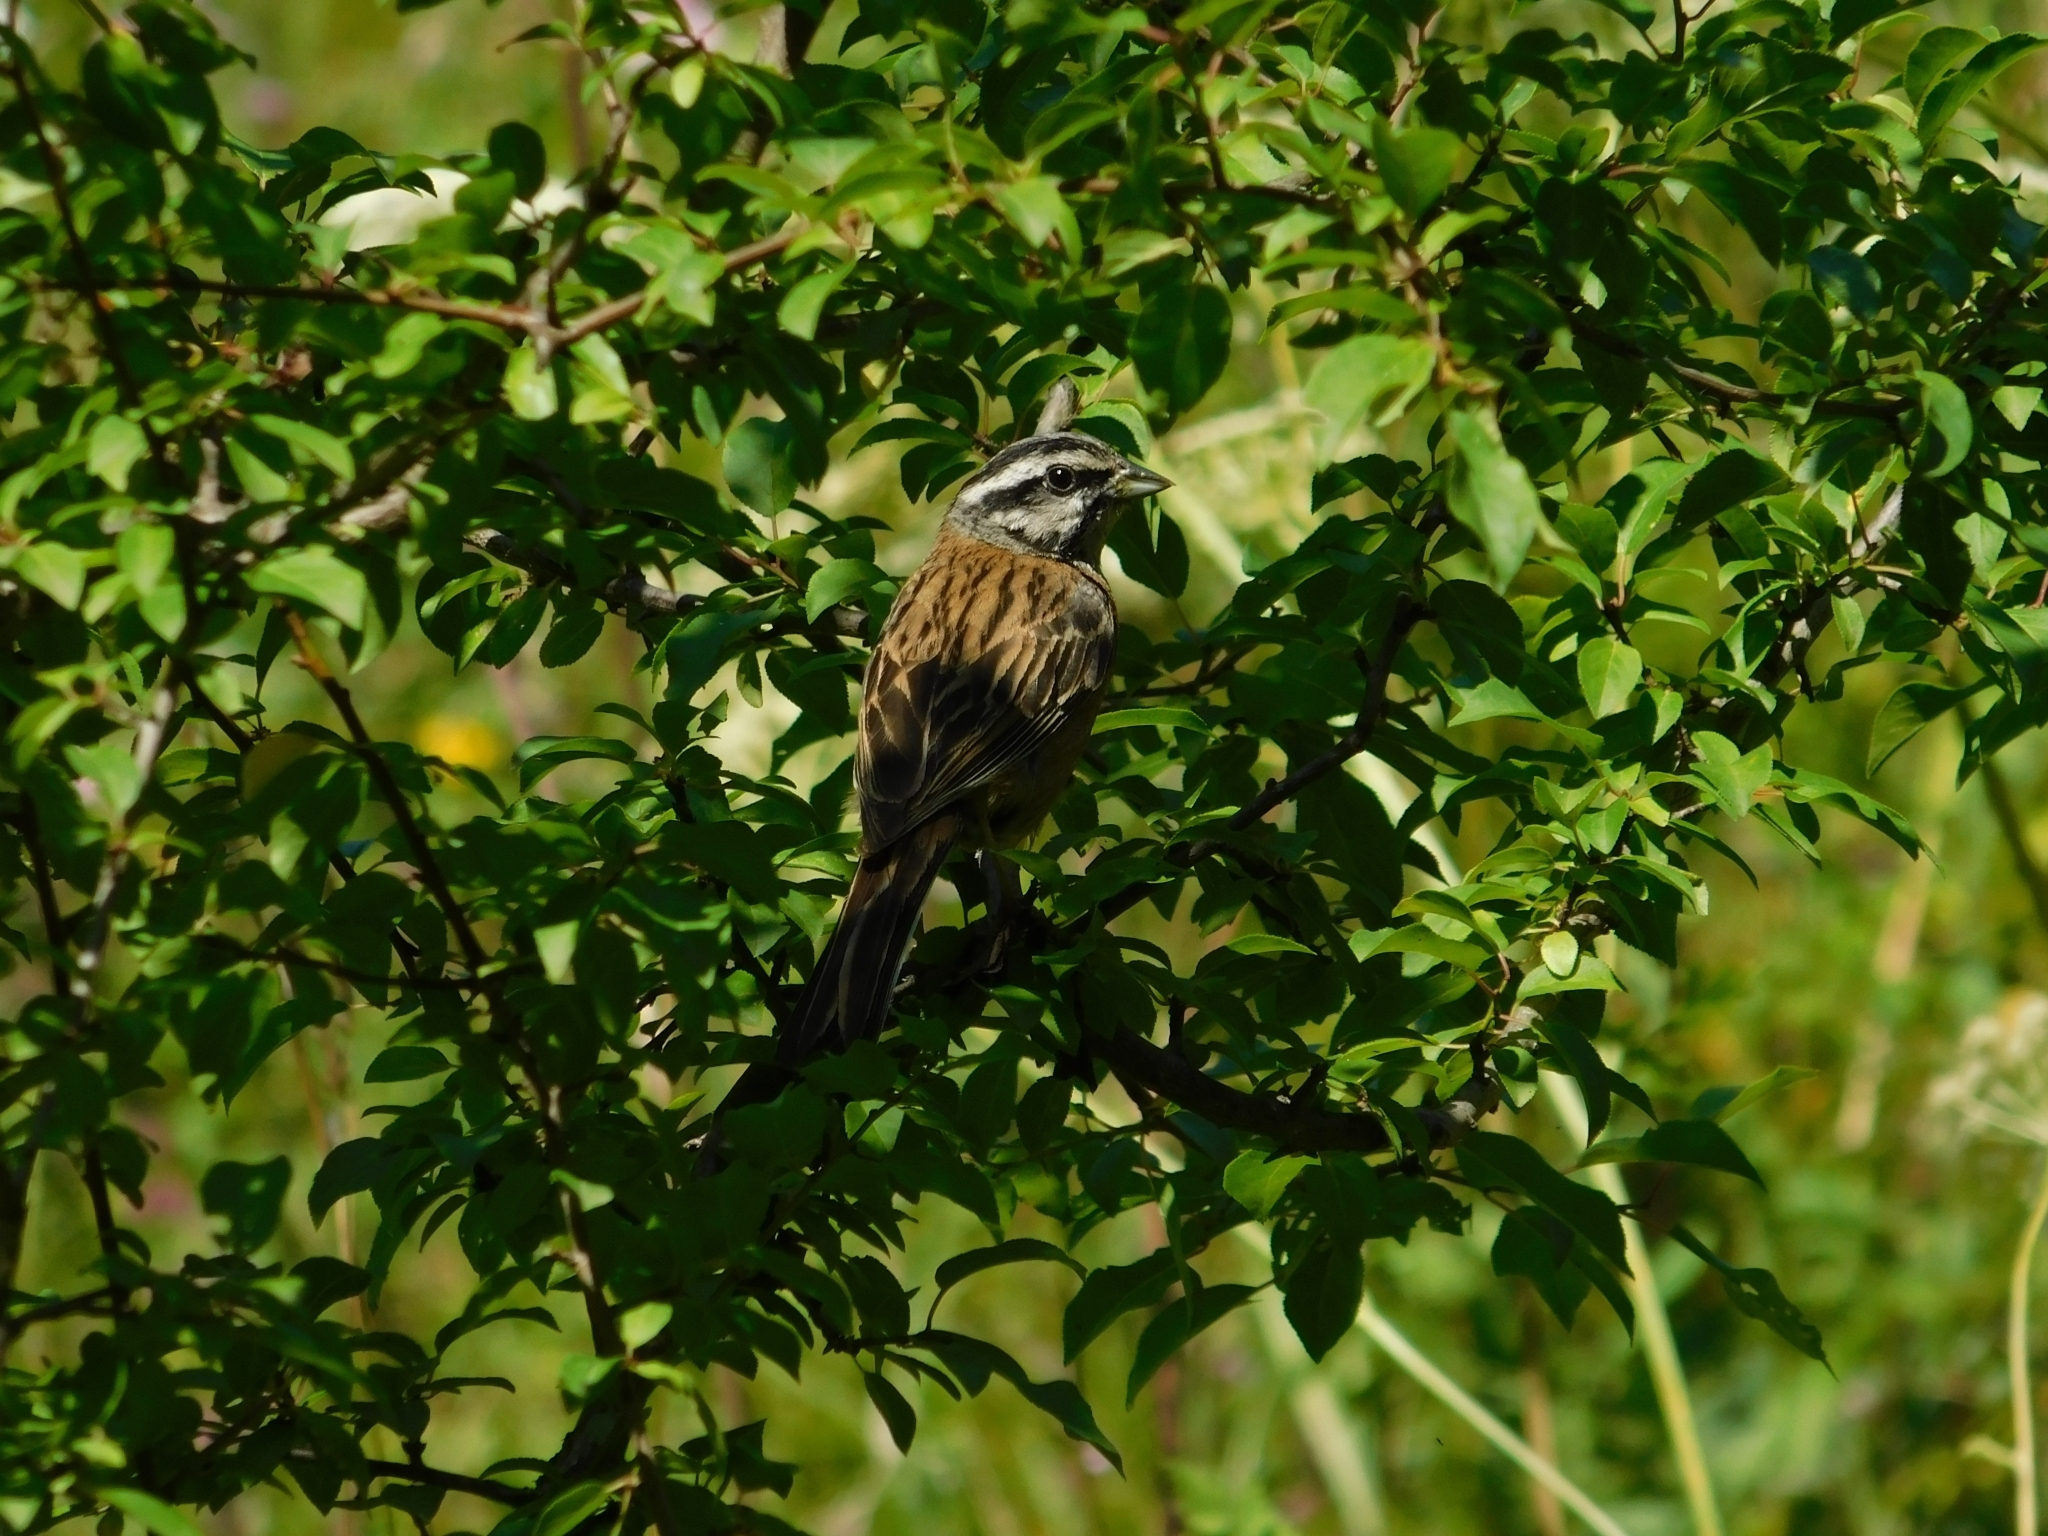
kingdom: Animalia
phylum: Chordata
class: Aves
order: Passeriformes
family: Emberizidae
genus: Emberiza
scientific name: Emberiza cia
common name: Rock bunting
